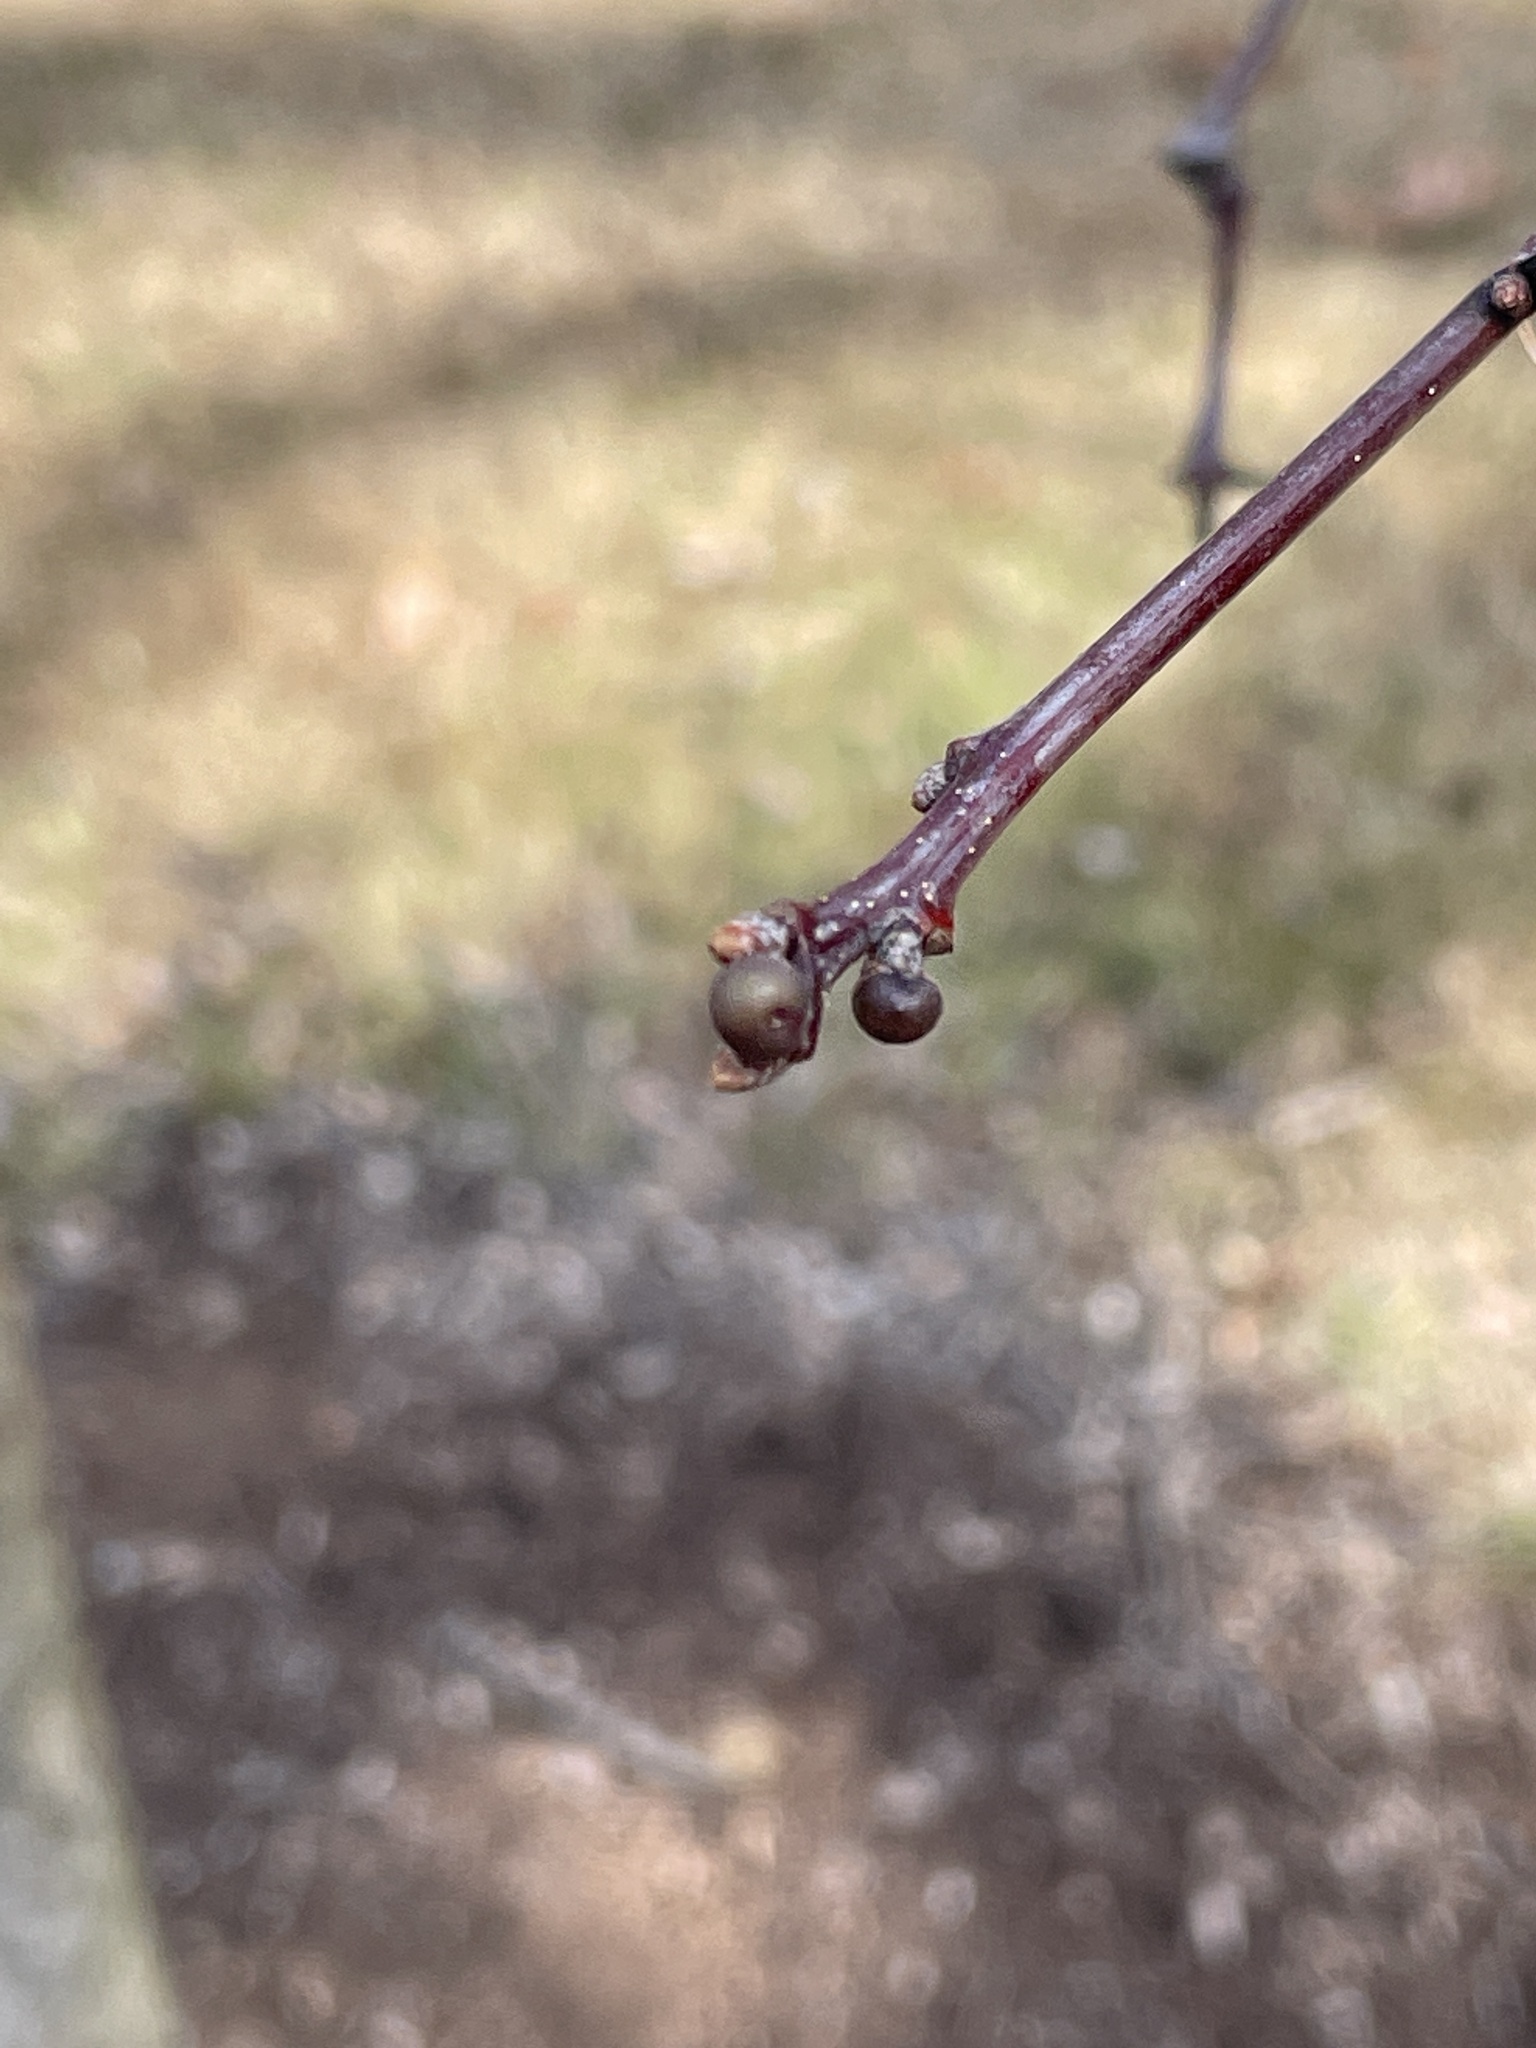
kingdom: Animalia
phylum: Arthropoda
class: Insecta
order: Hymenoptera
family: Cynipidae
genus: Neuroterus
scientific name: Neuroterus
